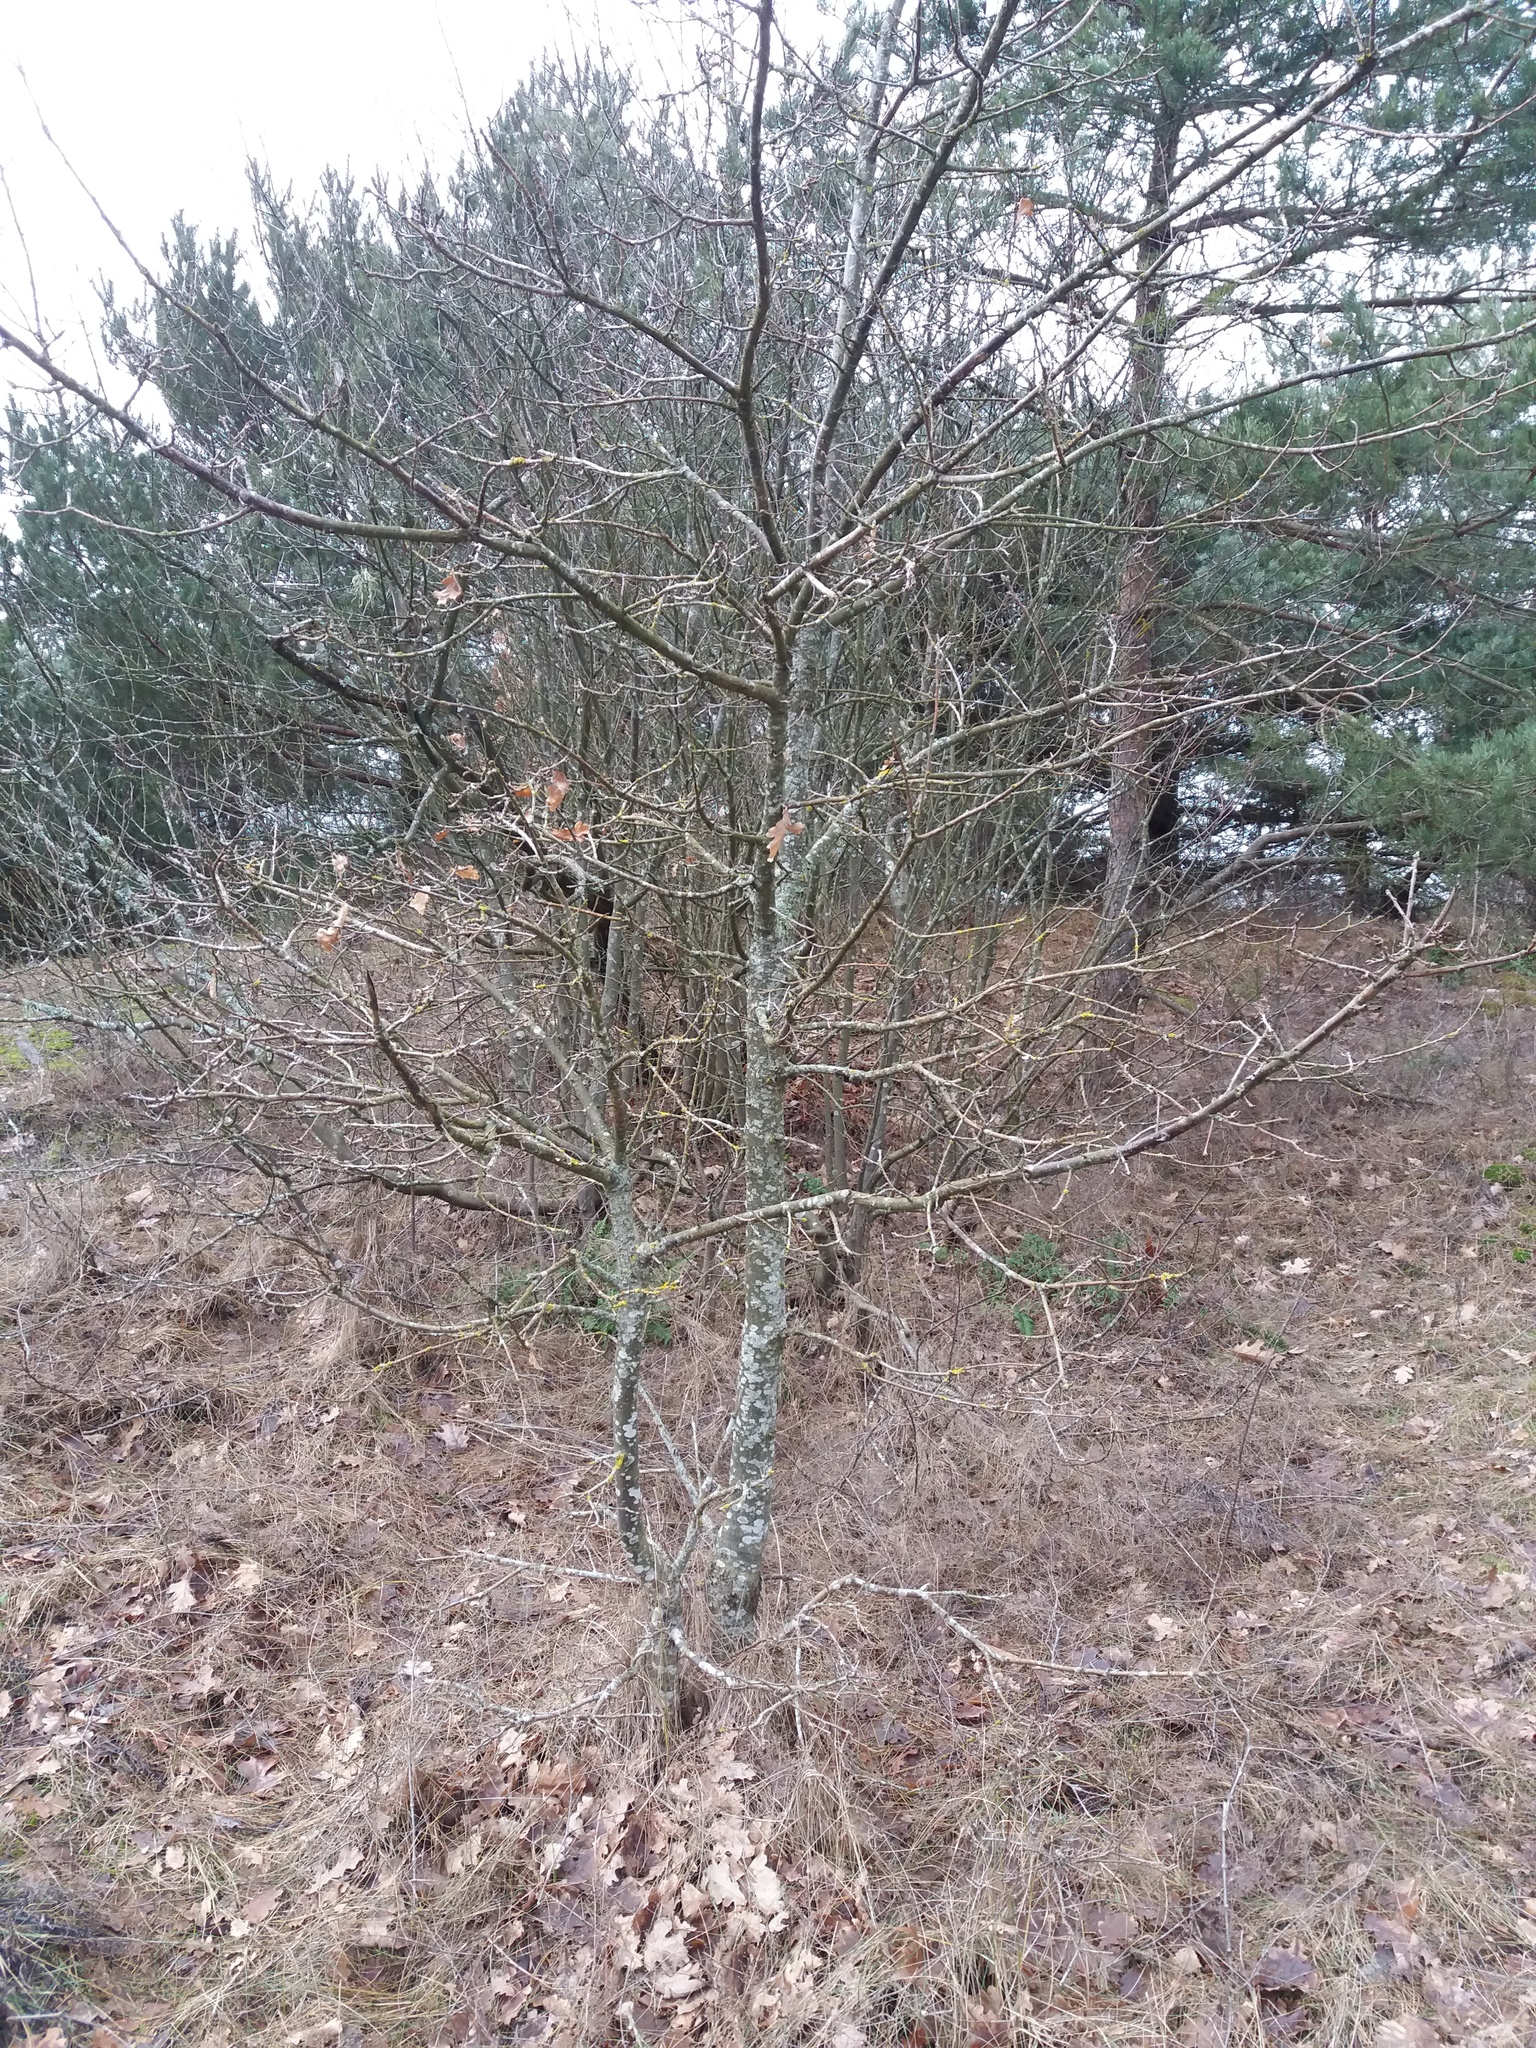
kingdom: Plantae
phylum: Tracheophyta
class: Magnoliopsida
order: Fagales
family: Fagaceae
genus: Quercus
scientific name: Quercus robur
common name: Pedunculate oak
